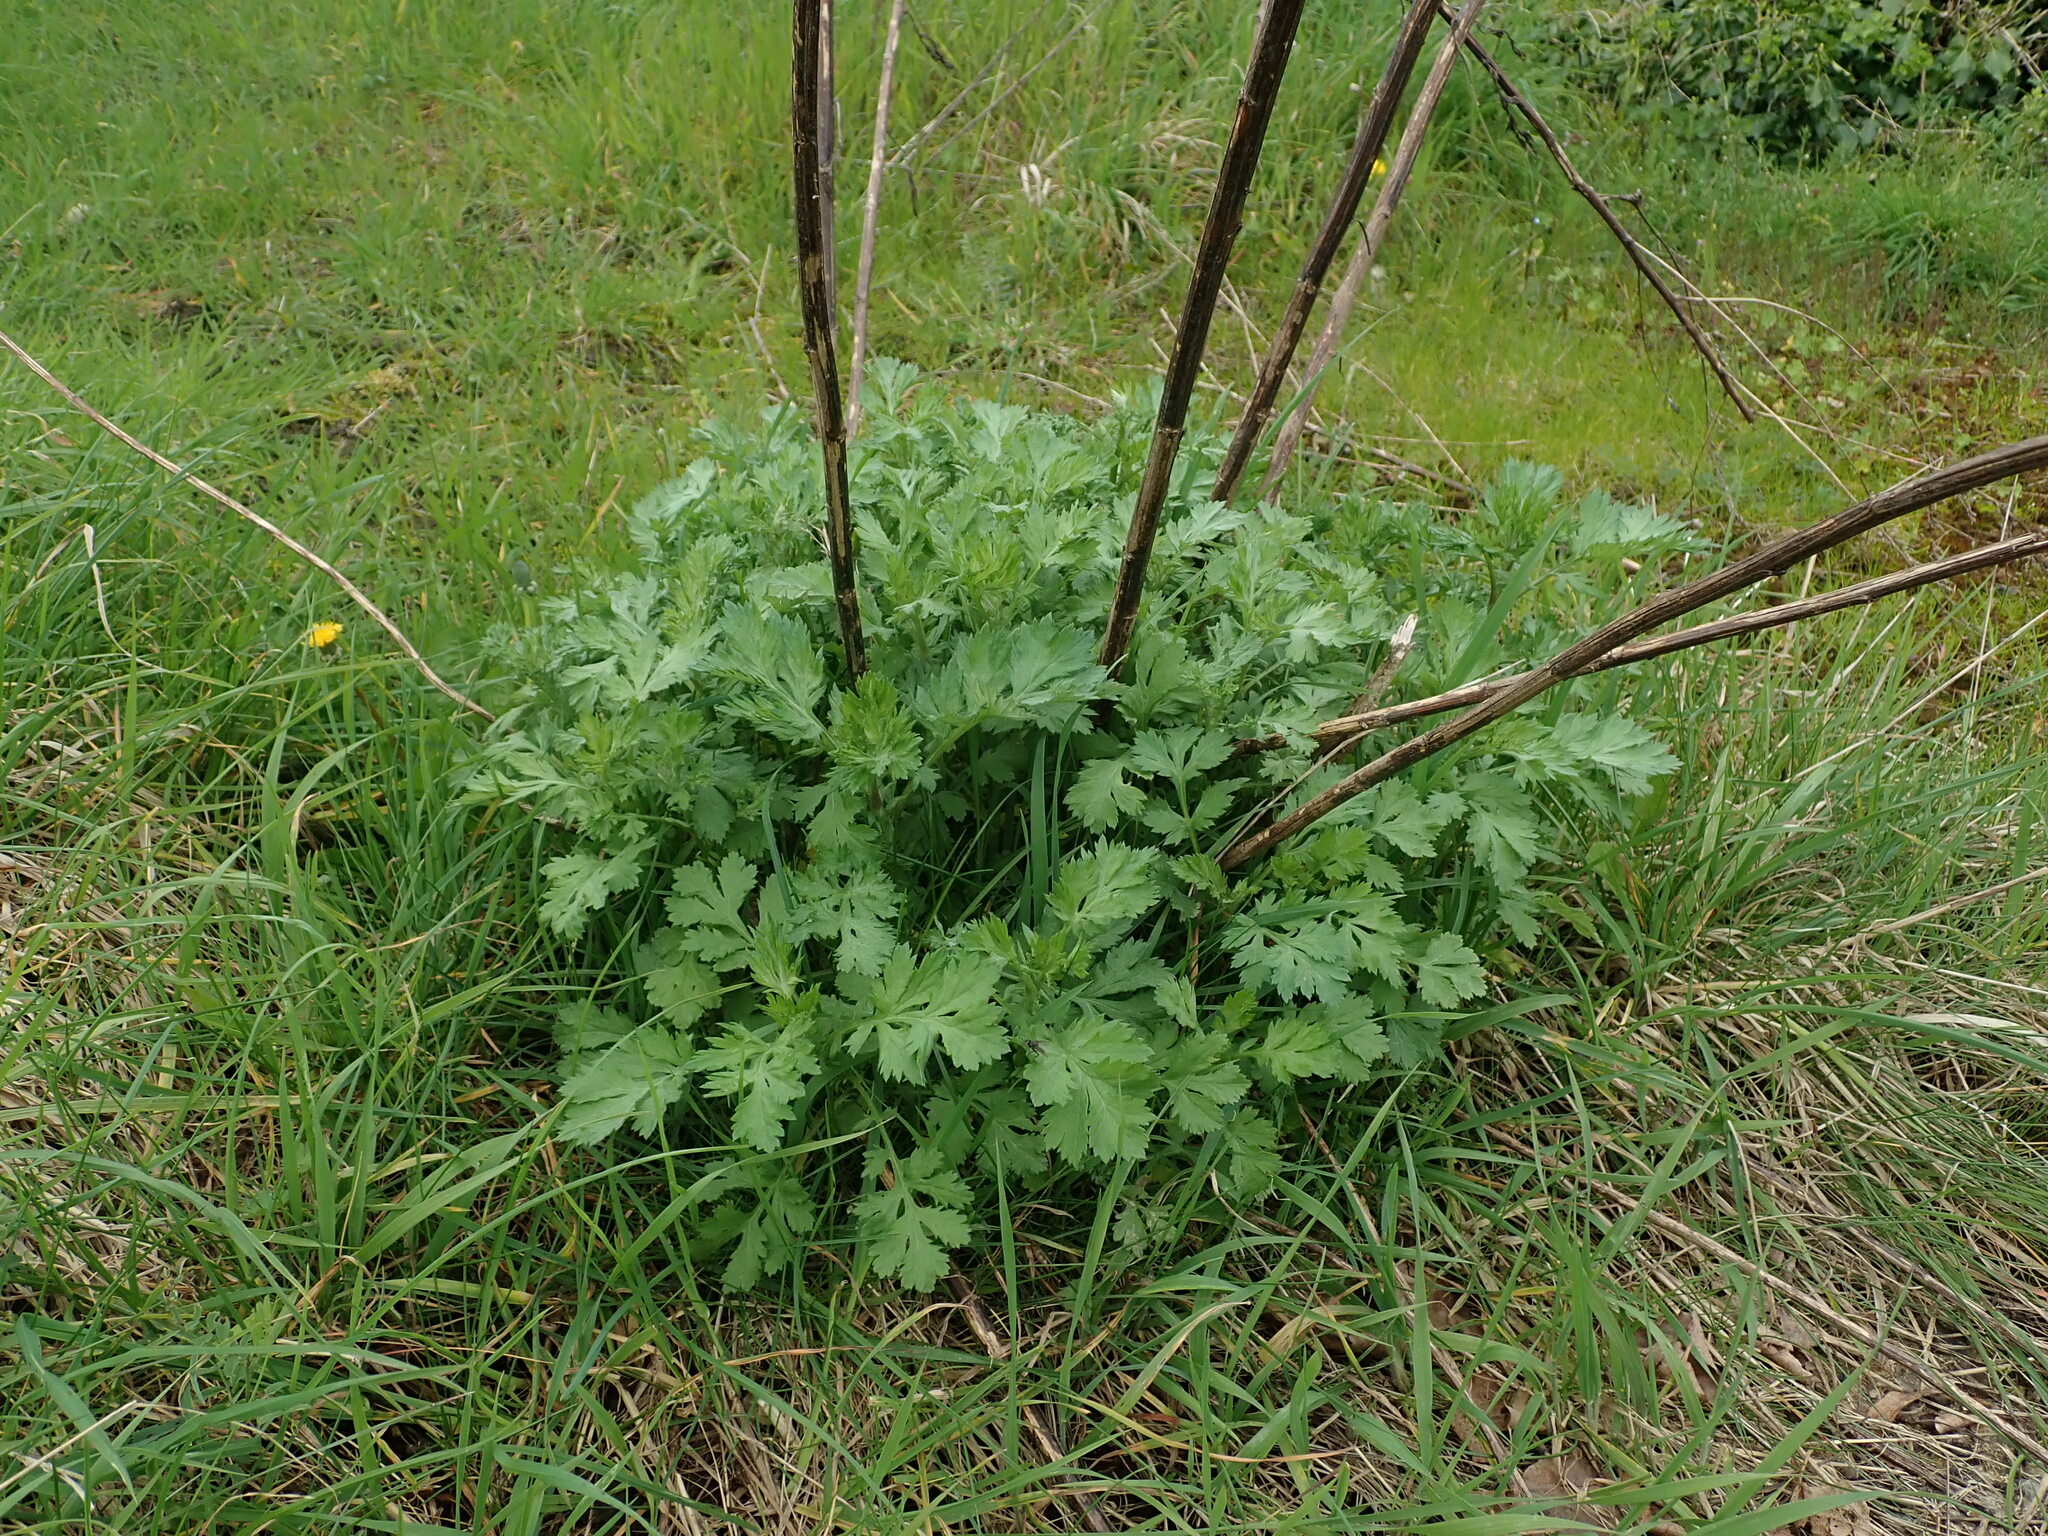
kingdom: Plantae
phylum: Tracheophyta
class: Magnoliopsida
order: Asterales
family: Asteraceae
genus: Artemisia
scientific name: Artemisia vulgaris
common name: Mugwort
